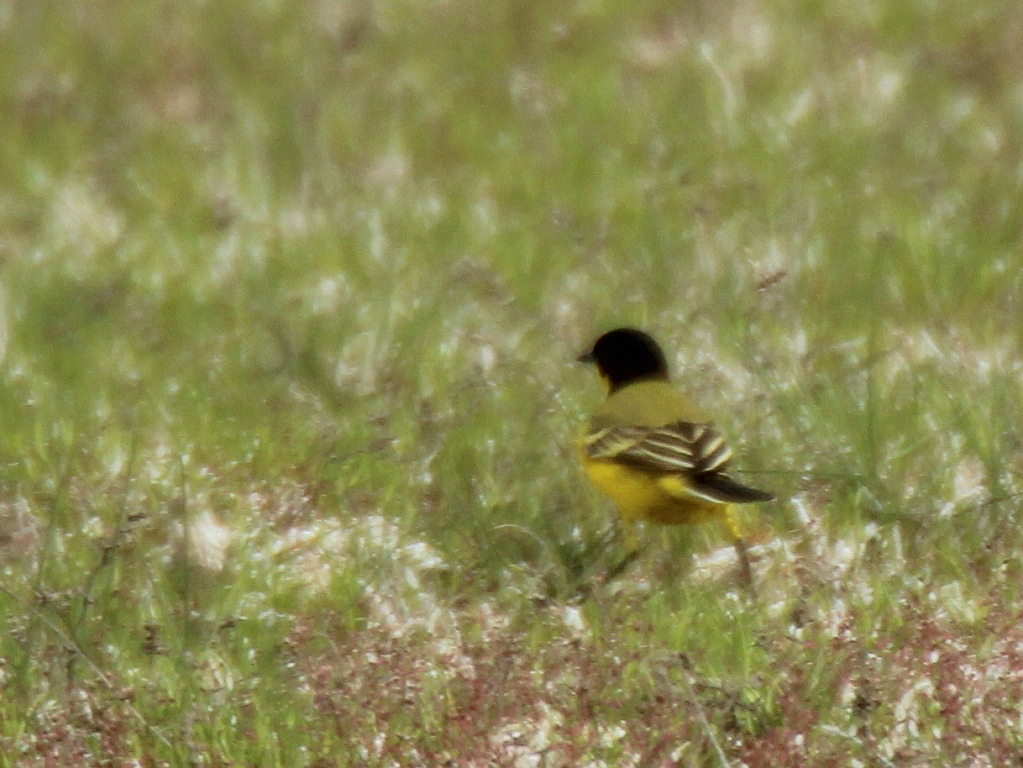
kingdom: Animalia
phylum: Chordata
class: Aves
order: Passeriformes
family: Motacillidae
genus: Motacilla
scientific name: Motacilla flava
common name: Western yellow wagtail
